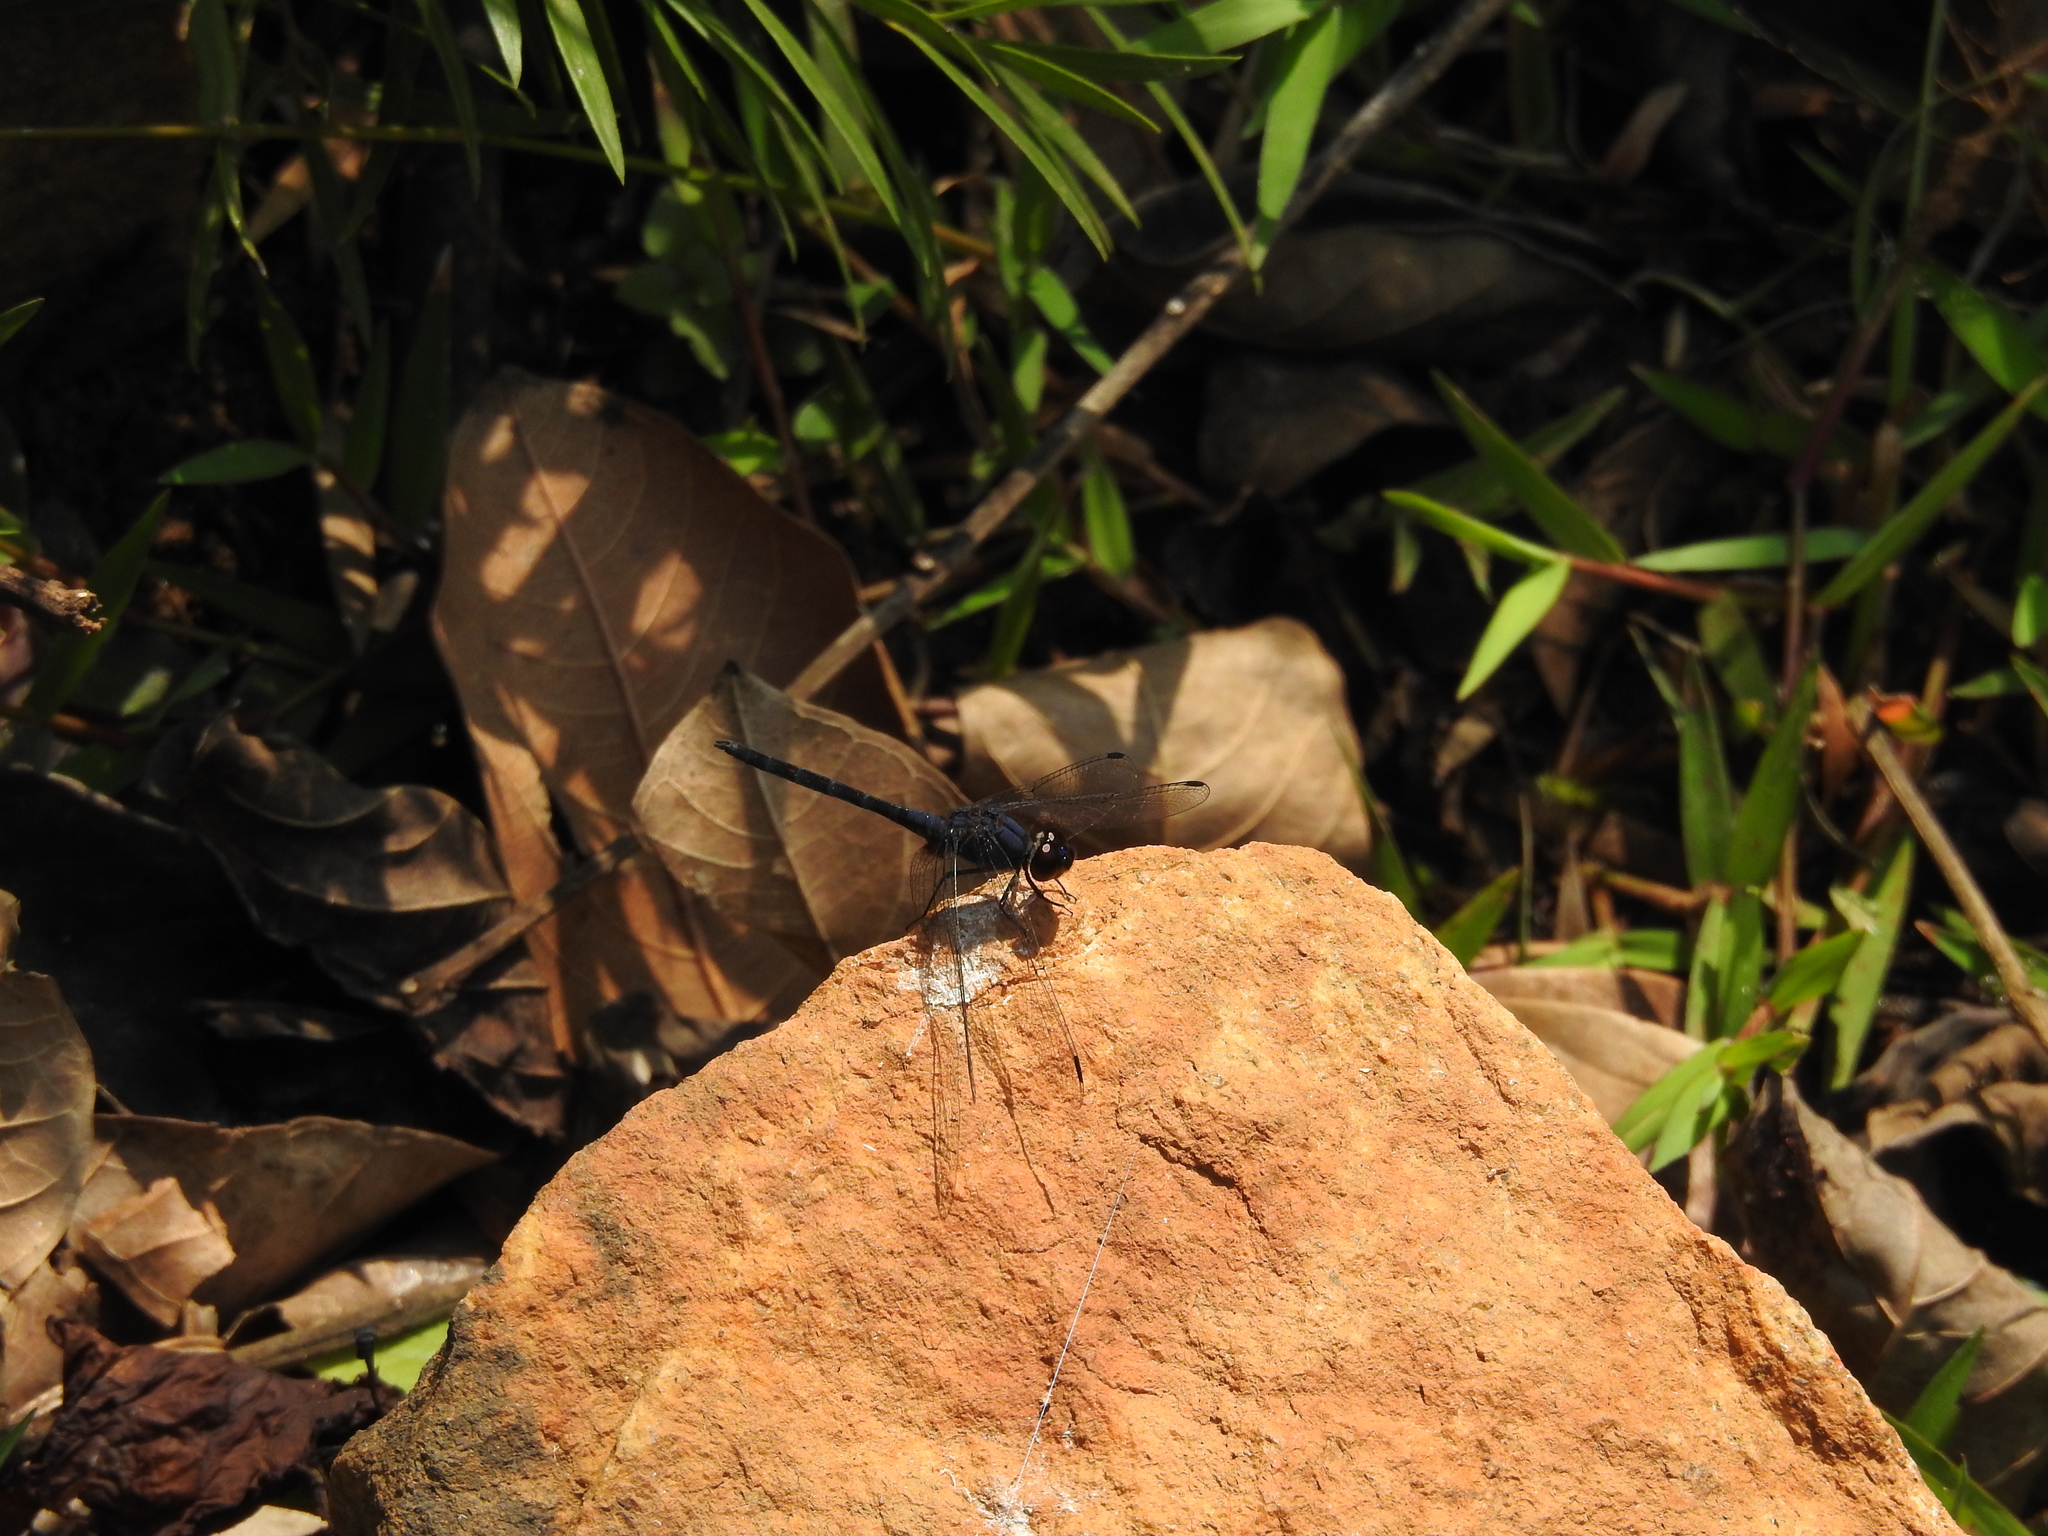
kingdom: Animalia
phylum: Arthropoda
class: Insecta
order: Odonata
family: Libellulidae
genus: Trithemis
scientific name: Trithemis festiva
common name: Indigo dropwing
